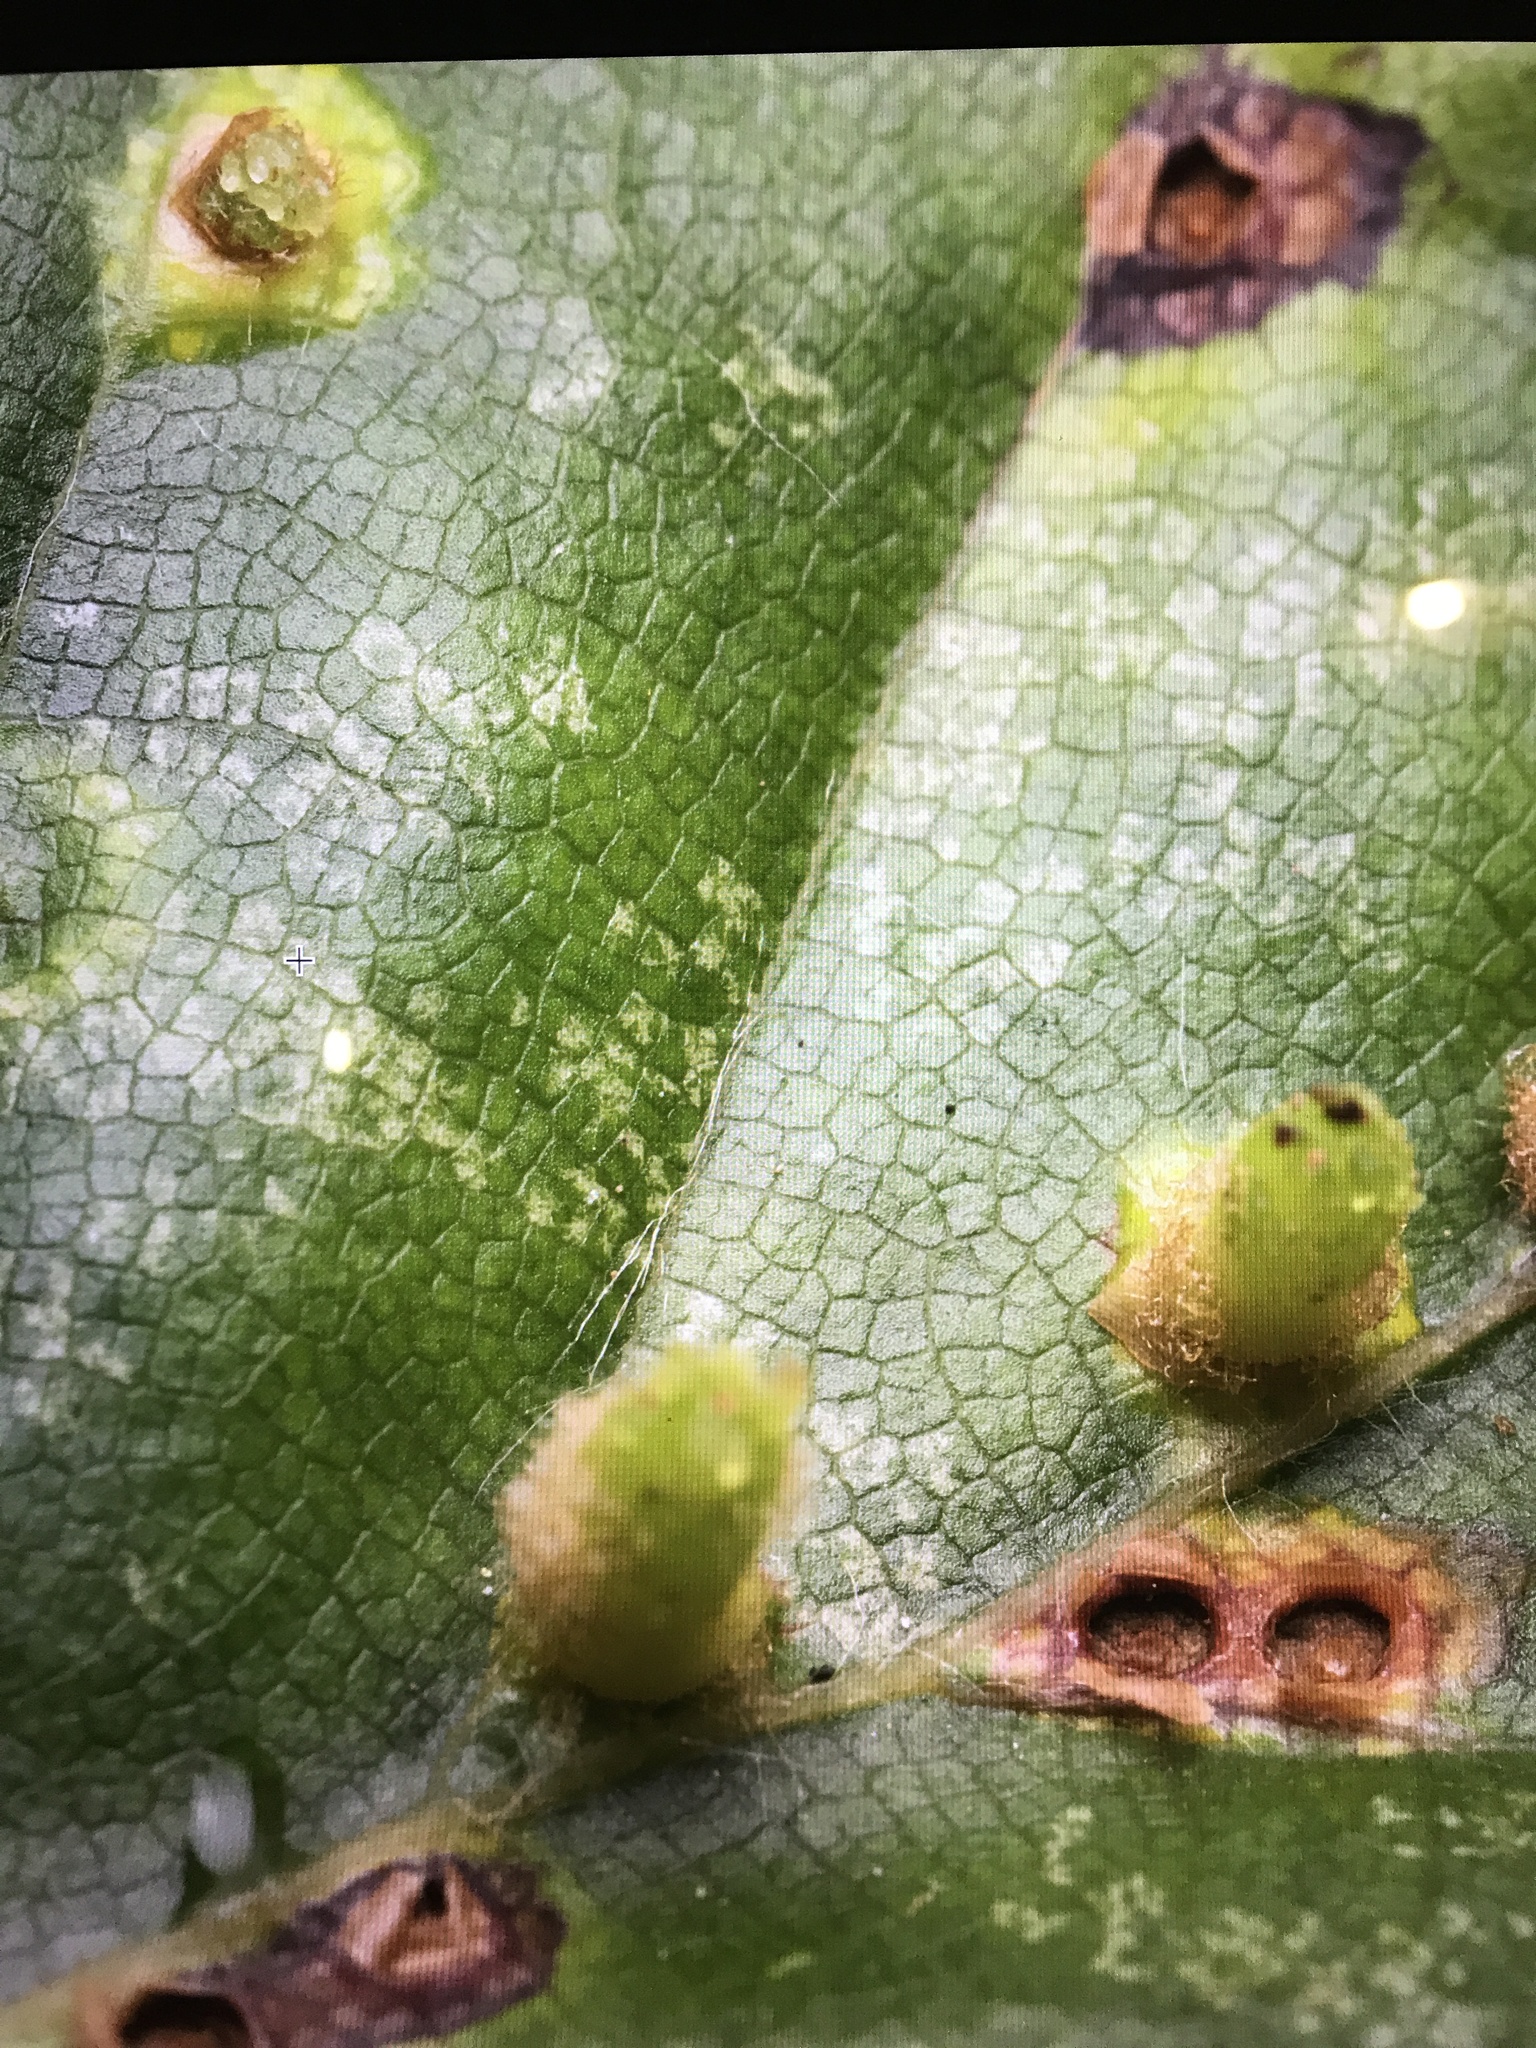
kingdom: Animalia
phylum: Arthropoda
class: Insecta
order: Diptera
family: Cecidomyiidae
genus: Hartigiola
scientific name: Hartigiola annulipes
